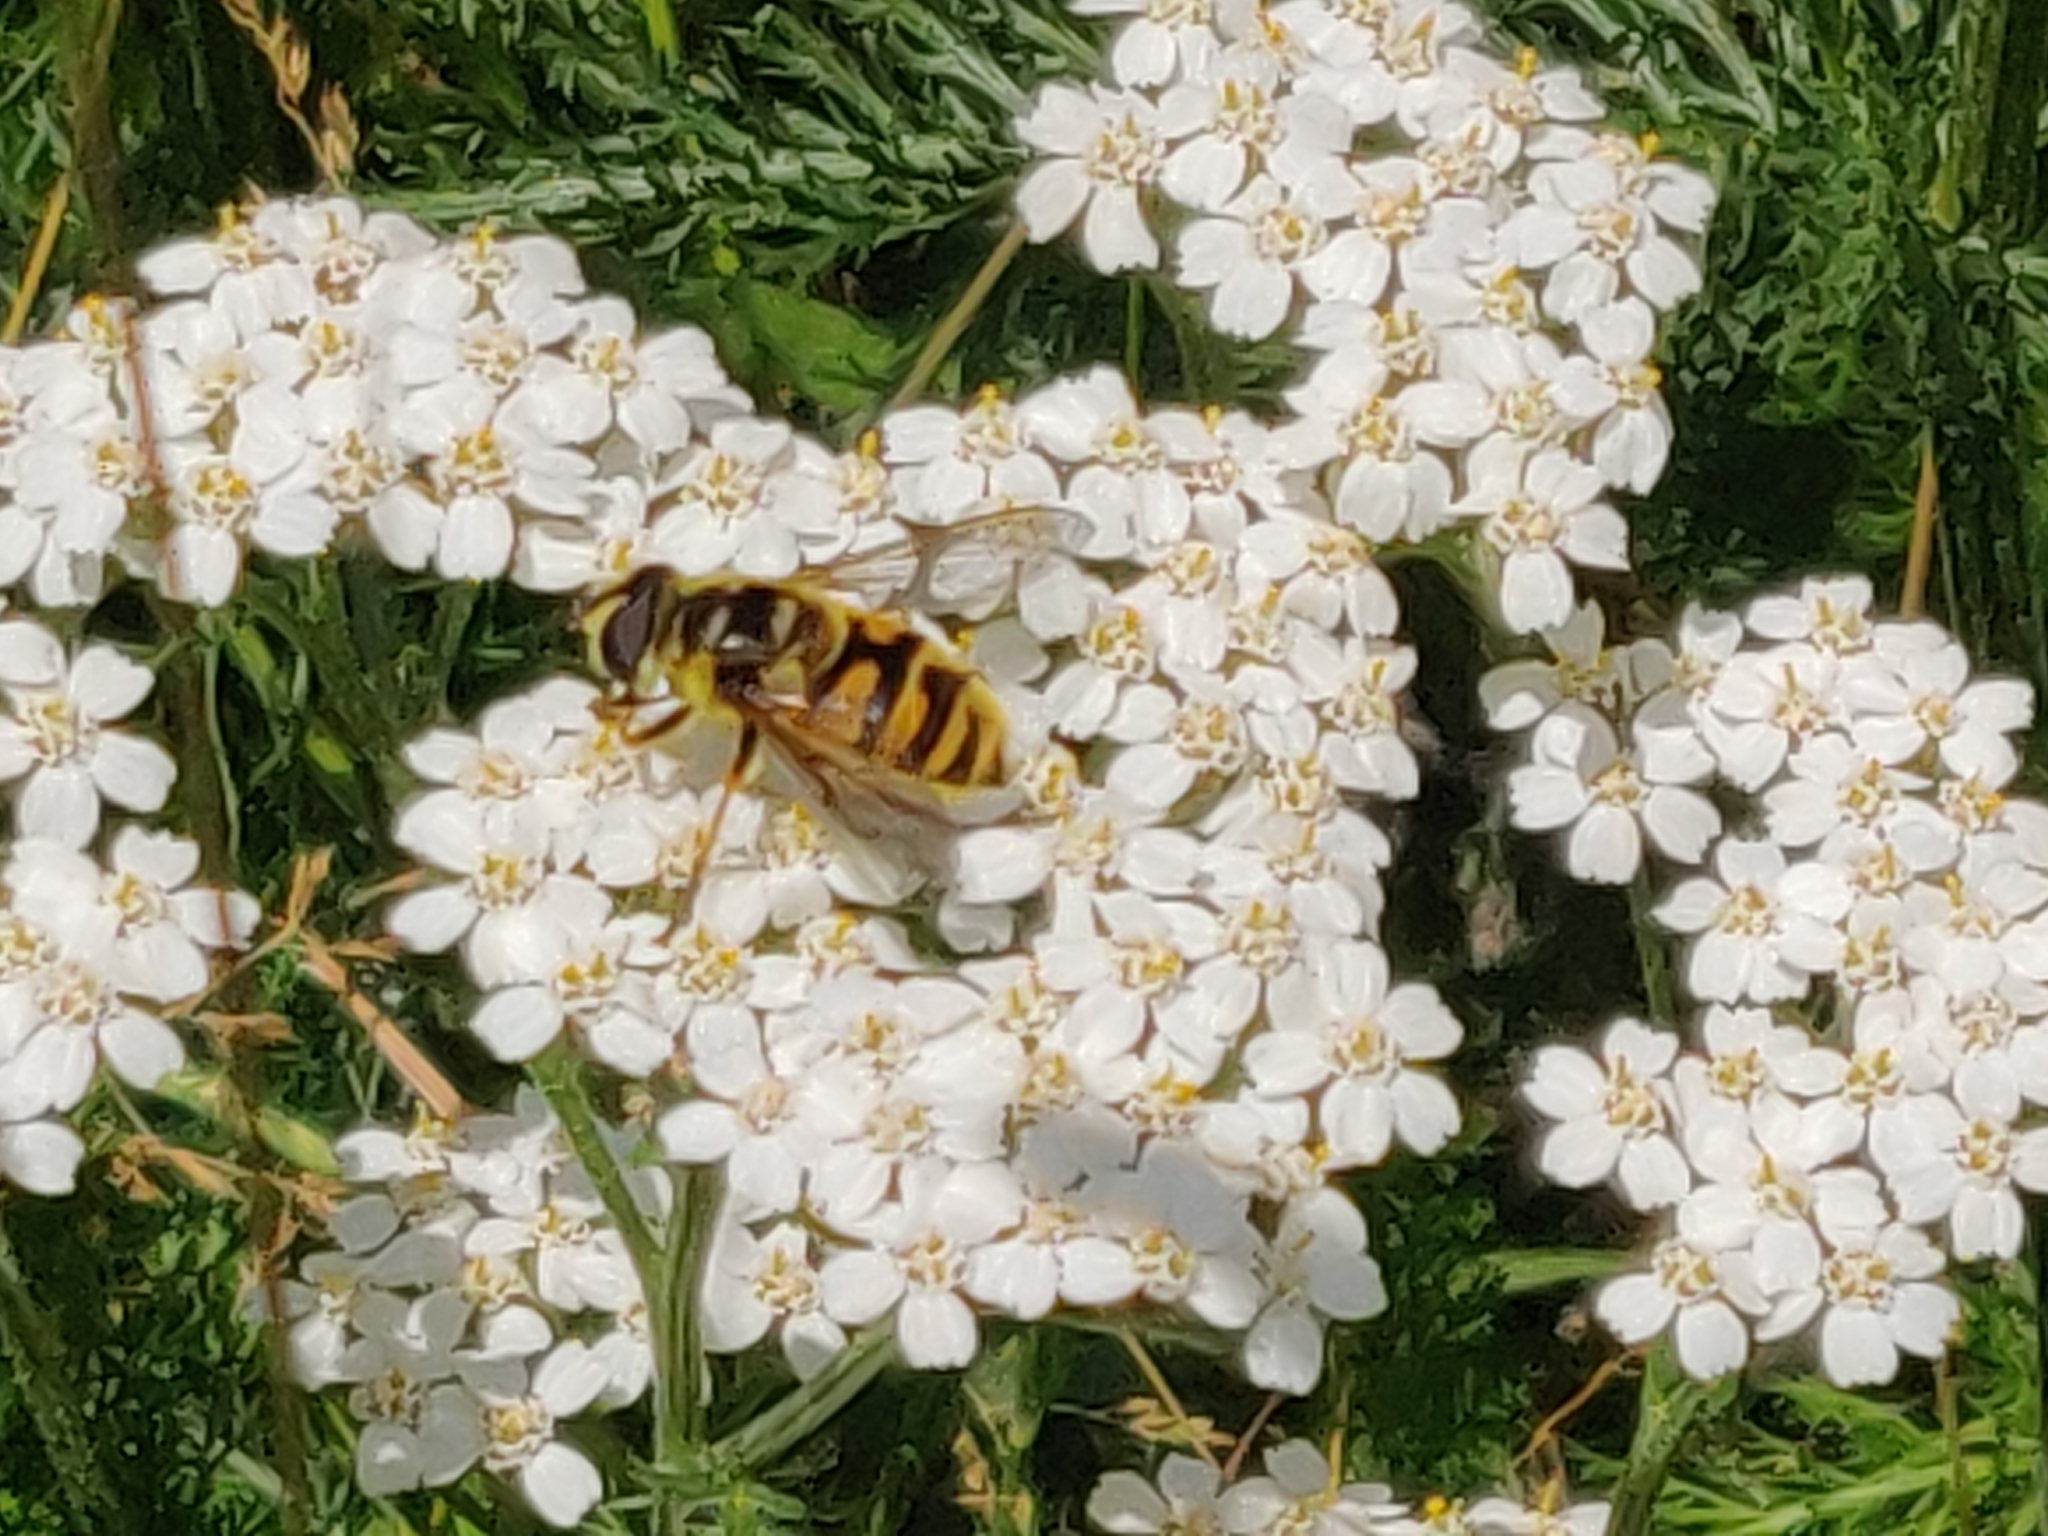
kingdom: Animalia
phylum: Arthropoda
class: Insecta
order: Diptera
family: Syrphidae
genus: Myathropa
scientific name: Myathropa florea
